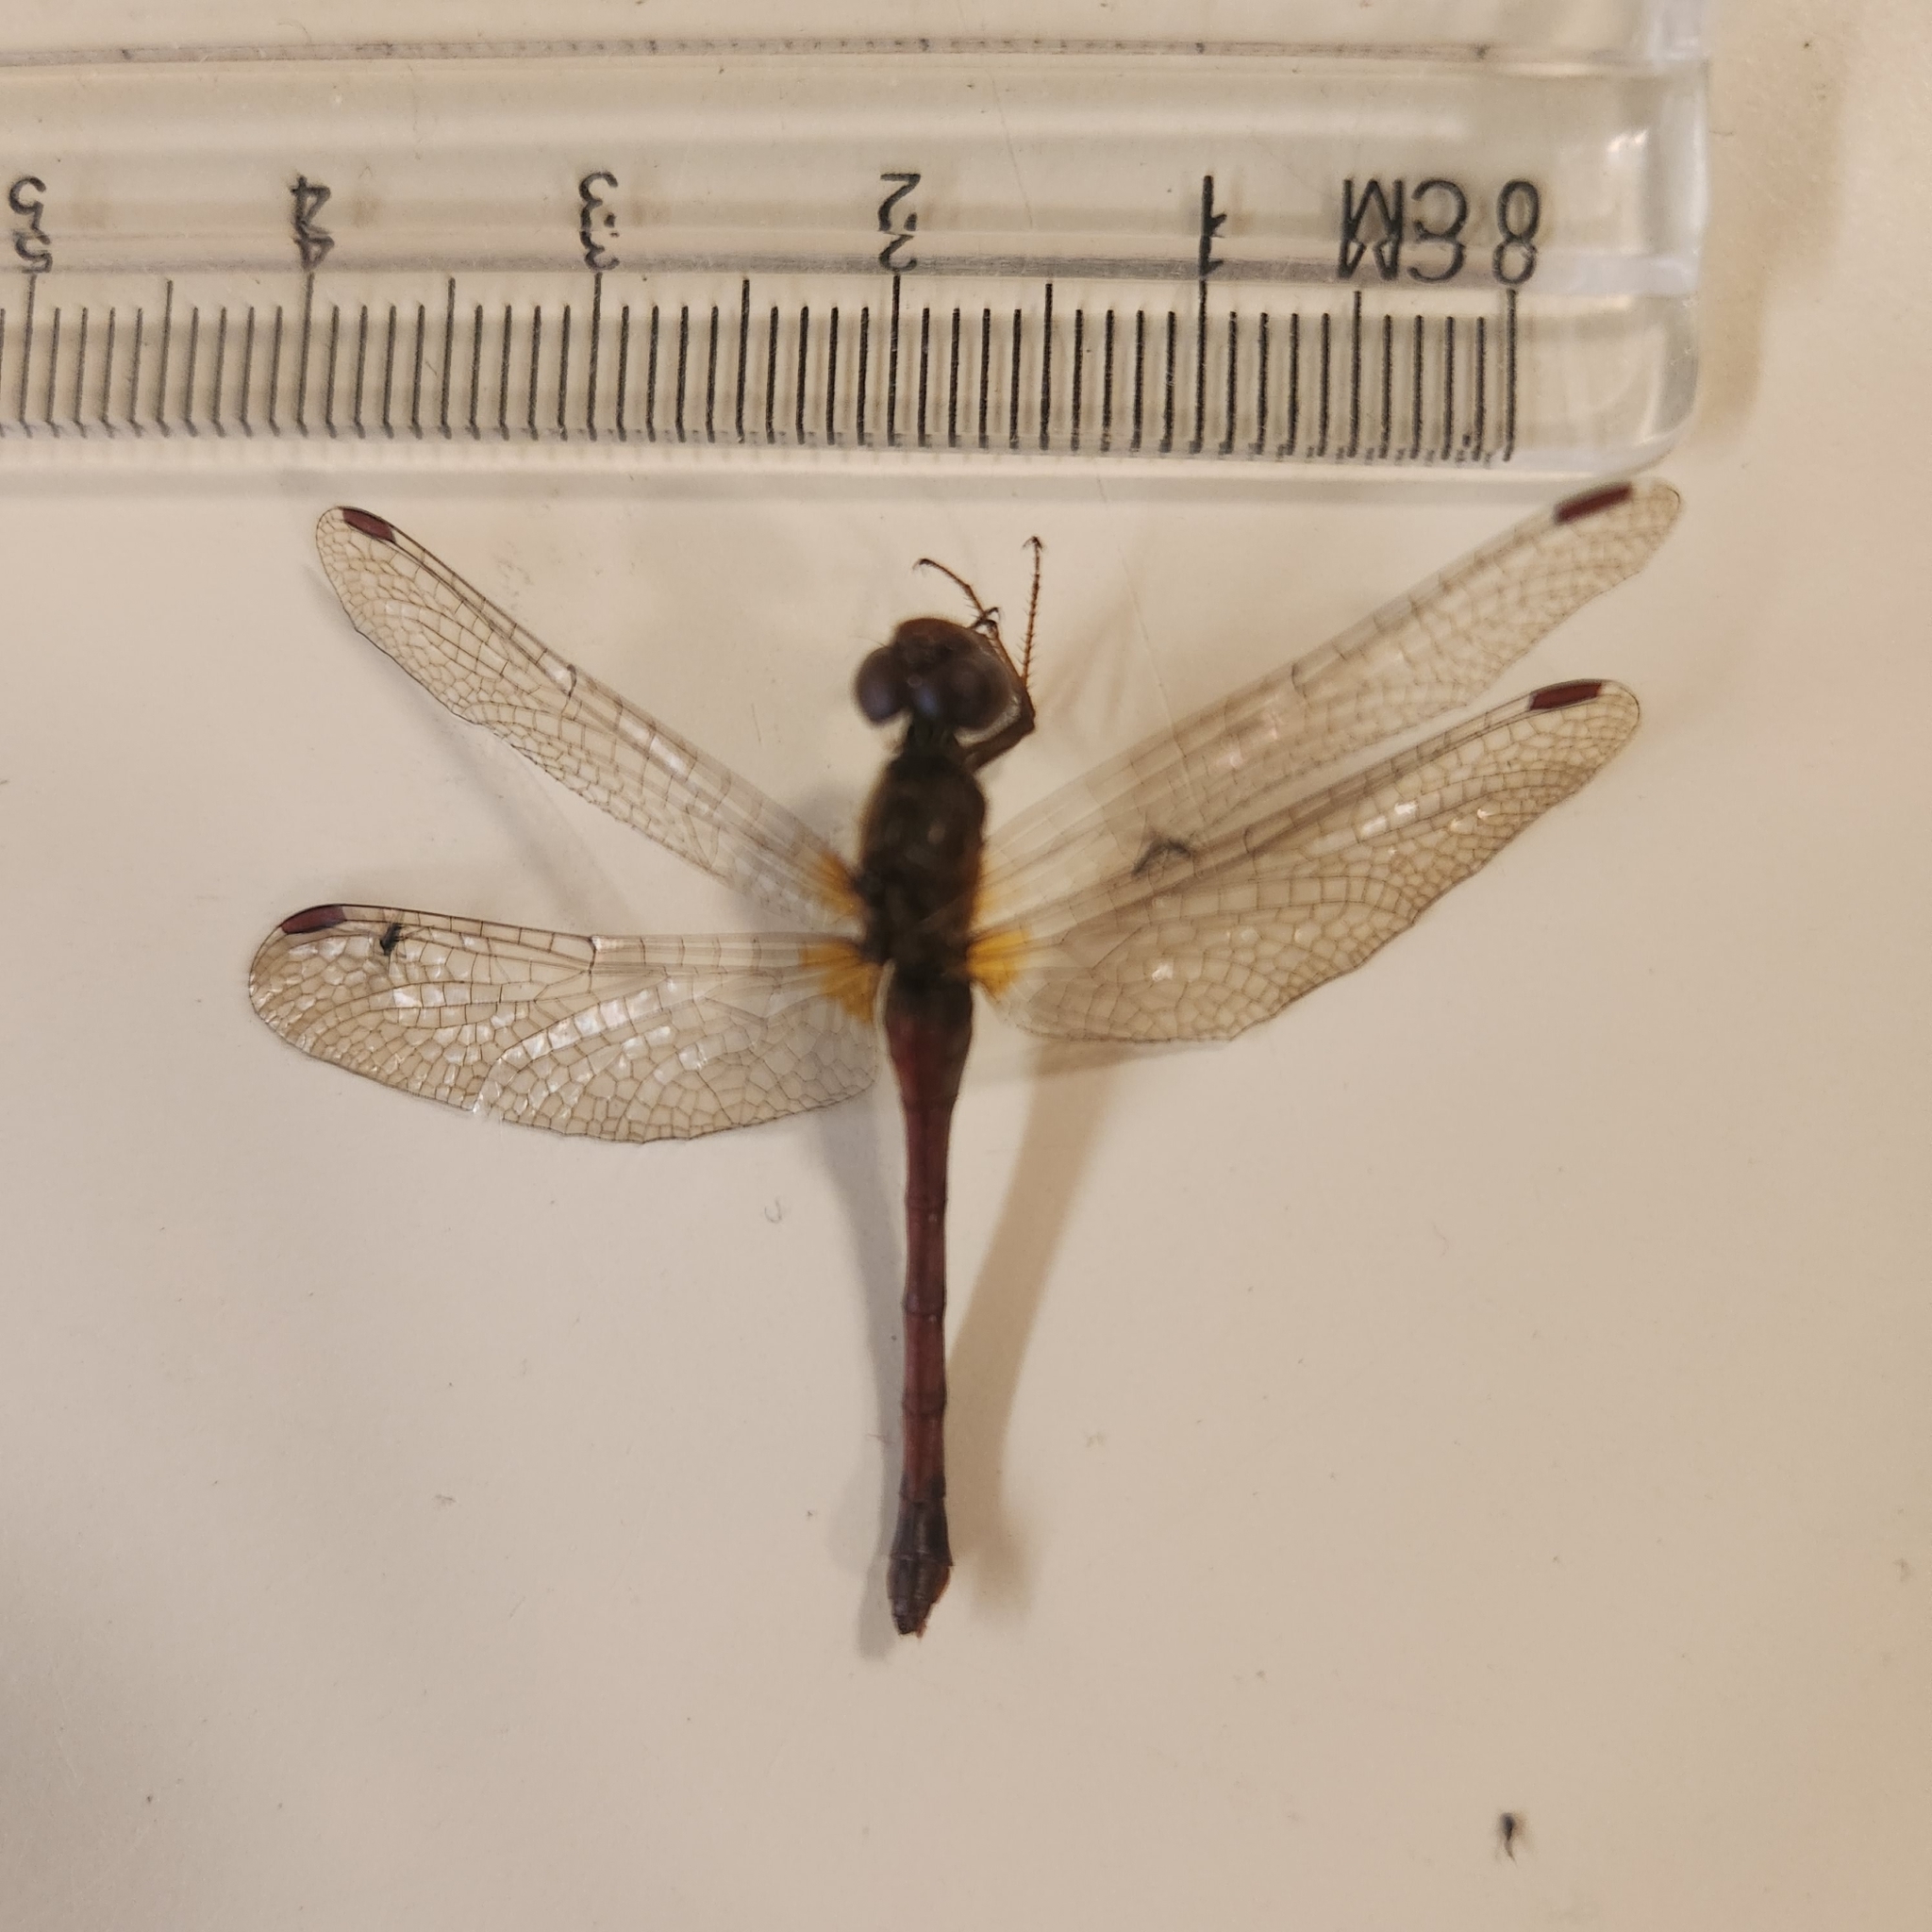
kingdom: Animalia
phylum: Arthropoda
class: Insecta
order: Odonata
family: Libellulidae
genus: Sympetrum
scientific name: Sympetrum vicinum
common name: Autumn meadowhawk
